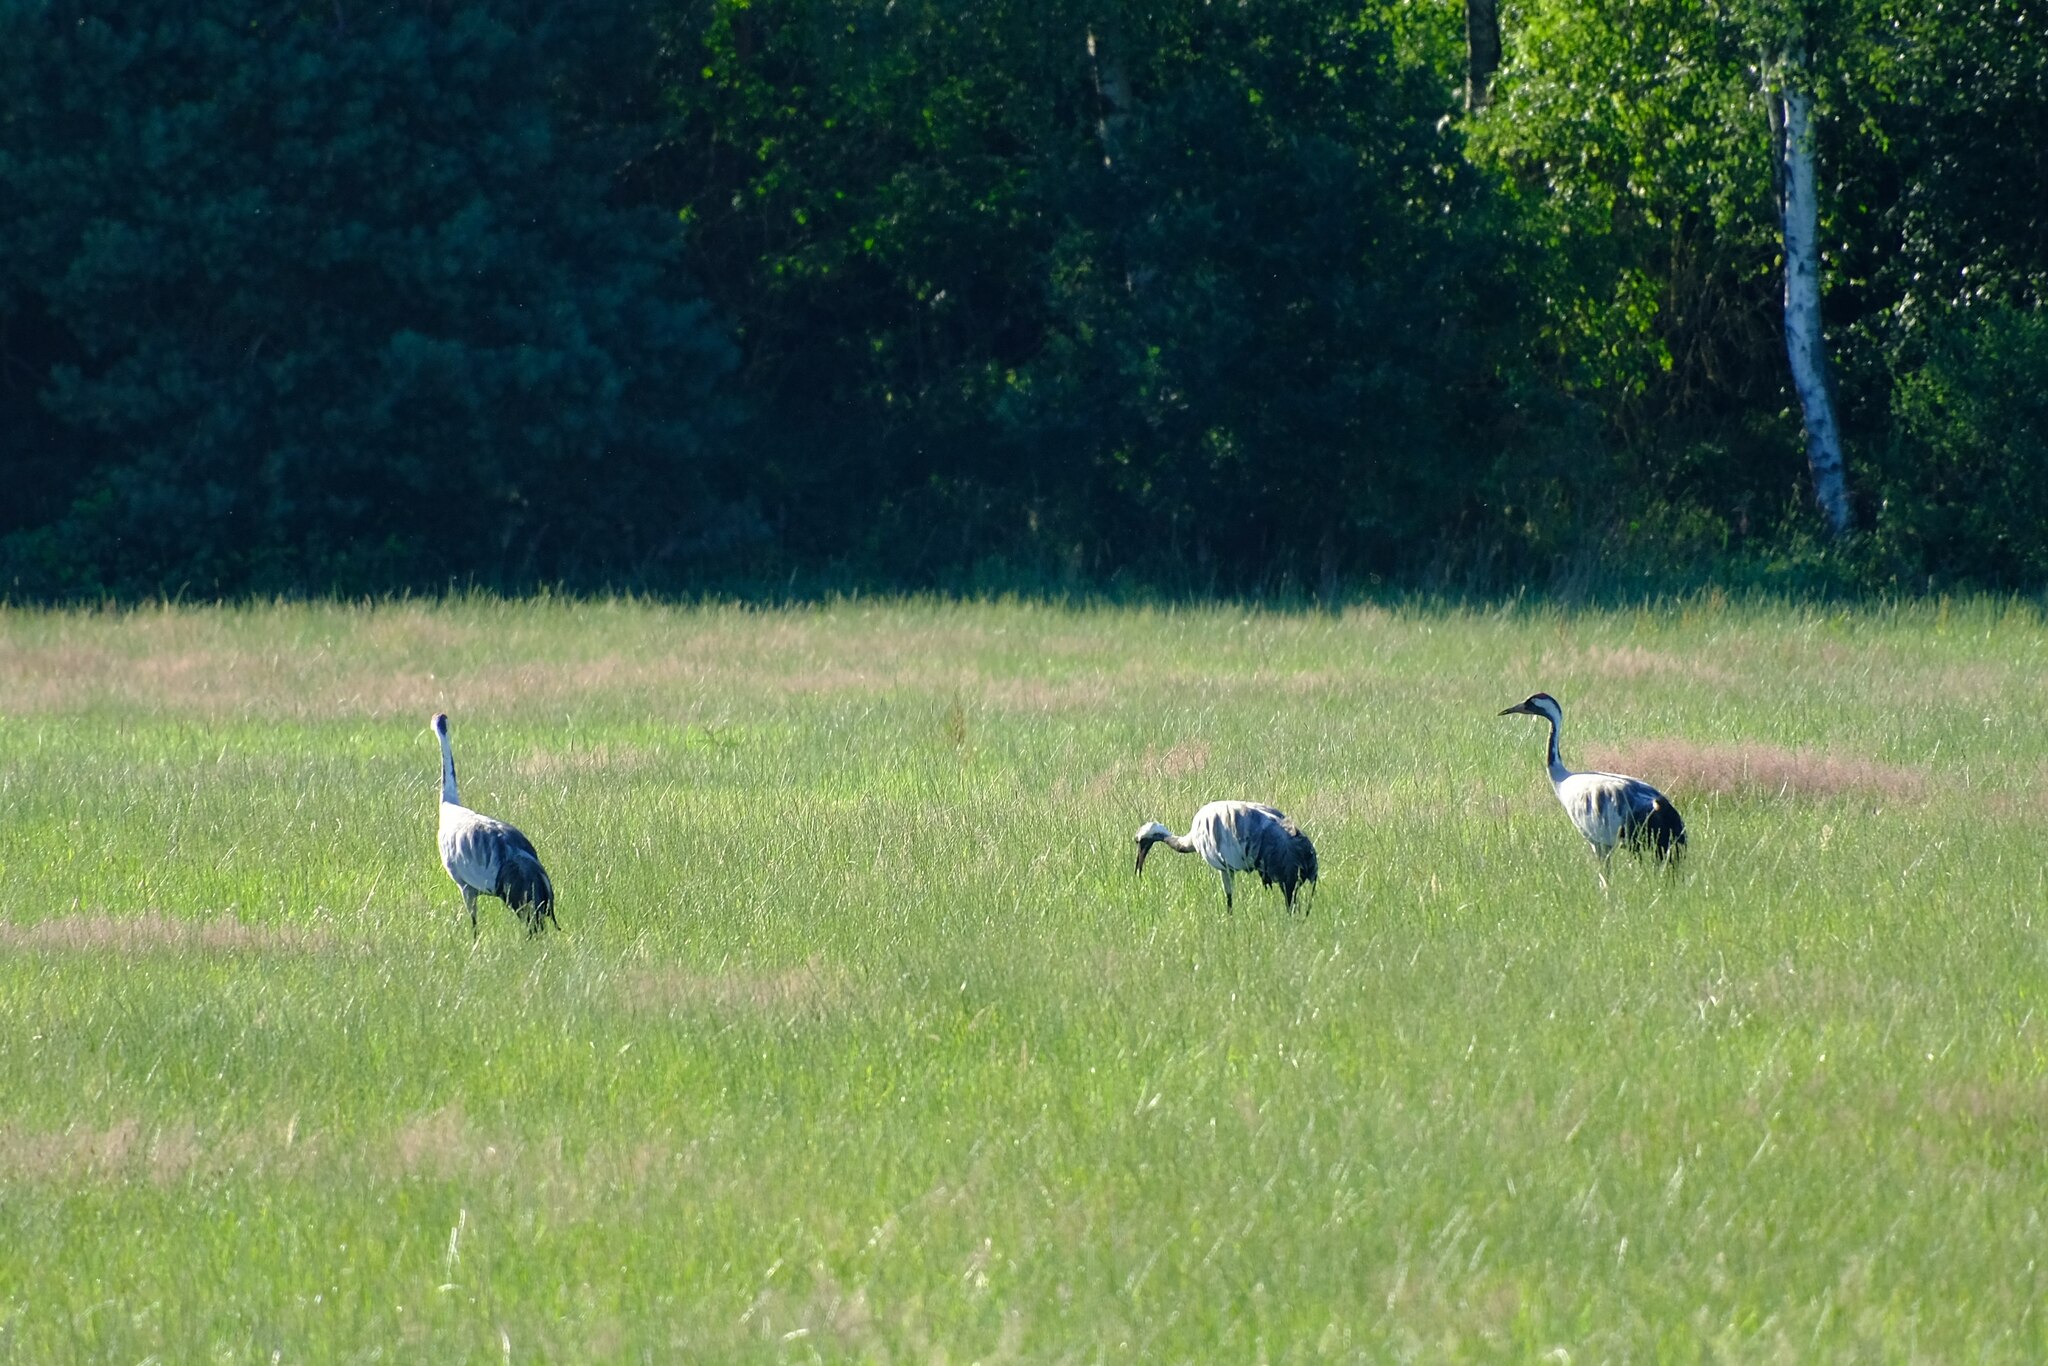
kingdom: Animalia
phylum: Chordata
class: Aves
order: Gruiformes
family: Gruidae
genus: Grus
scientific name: Grus grus
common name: Common crane
